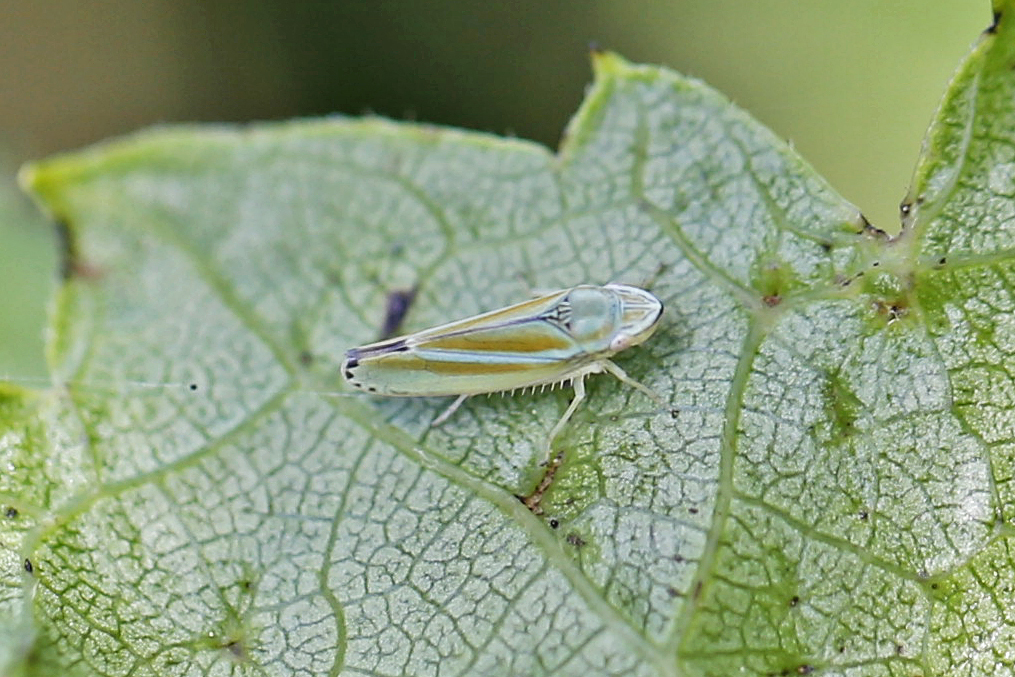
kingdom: Animalia
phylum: Arthropoda
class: Insecta
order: Hemiptera
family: Cicadellidae
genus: Graphocephala
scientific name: Graphocephala versuta
